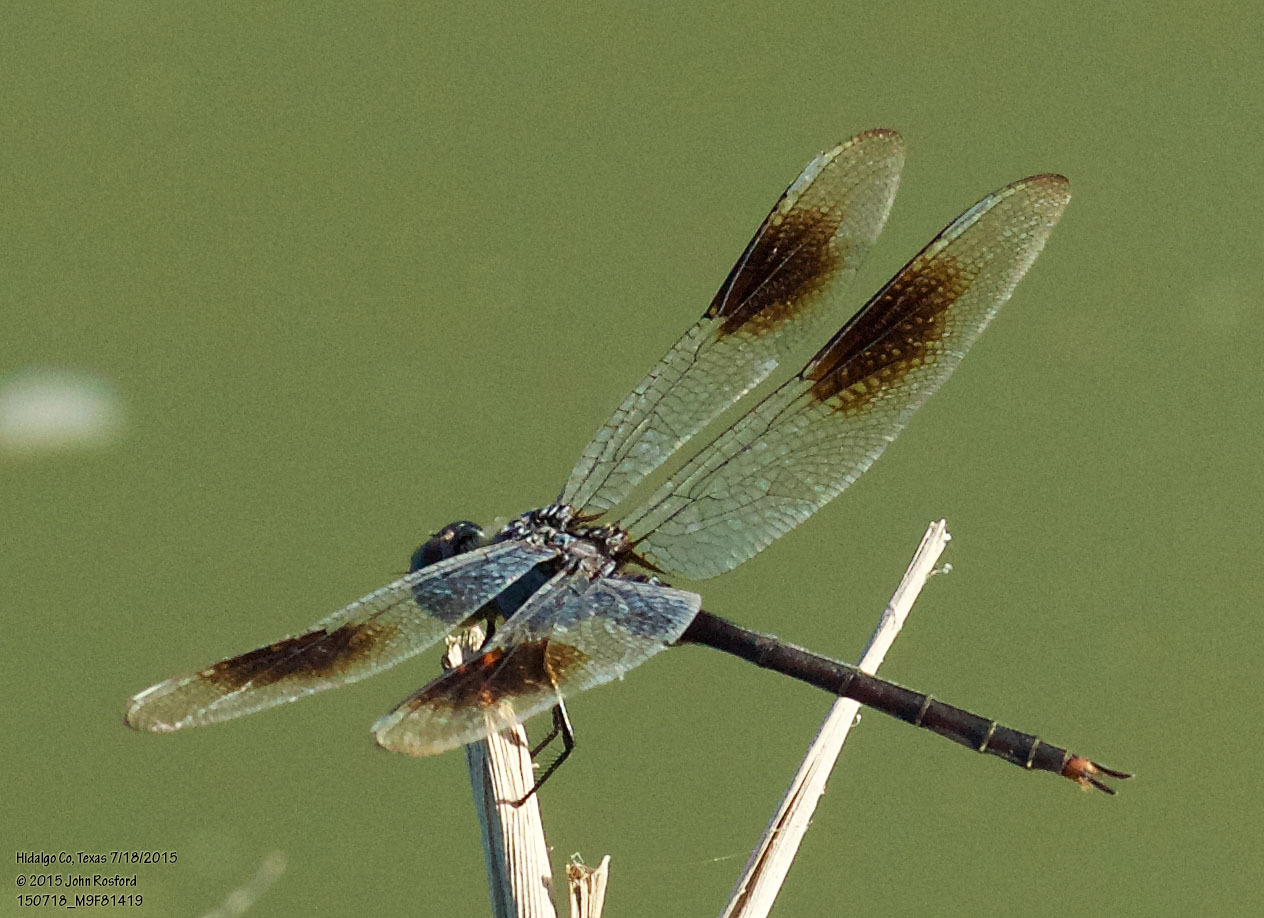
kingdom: Animalia
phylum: Arthropoda
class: Insecta
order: Odonata
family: Libellulidae
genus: Brachymesia
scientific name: Brachymesia gravida
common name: Four-spotted pennant
